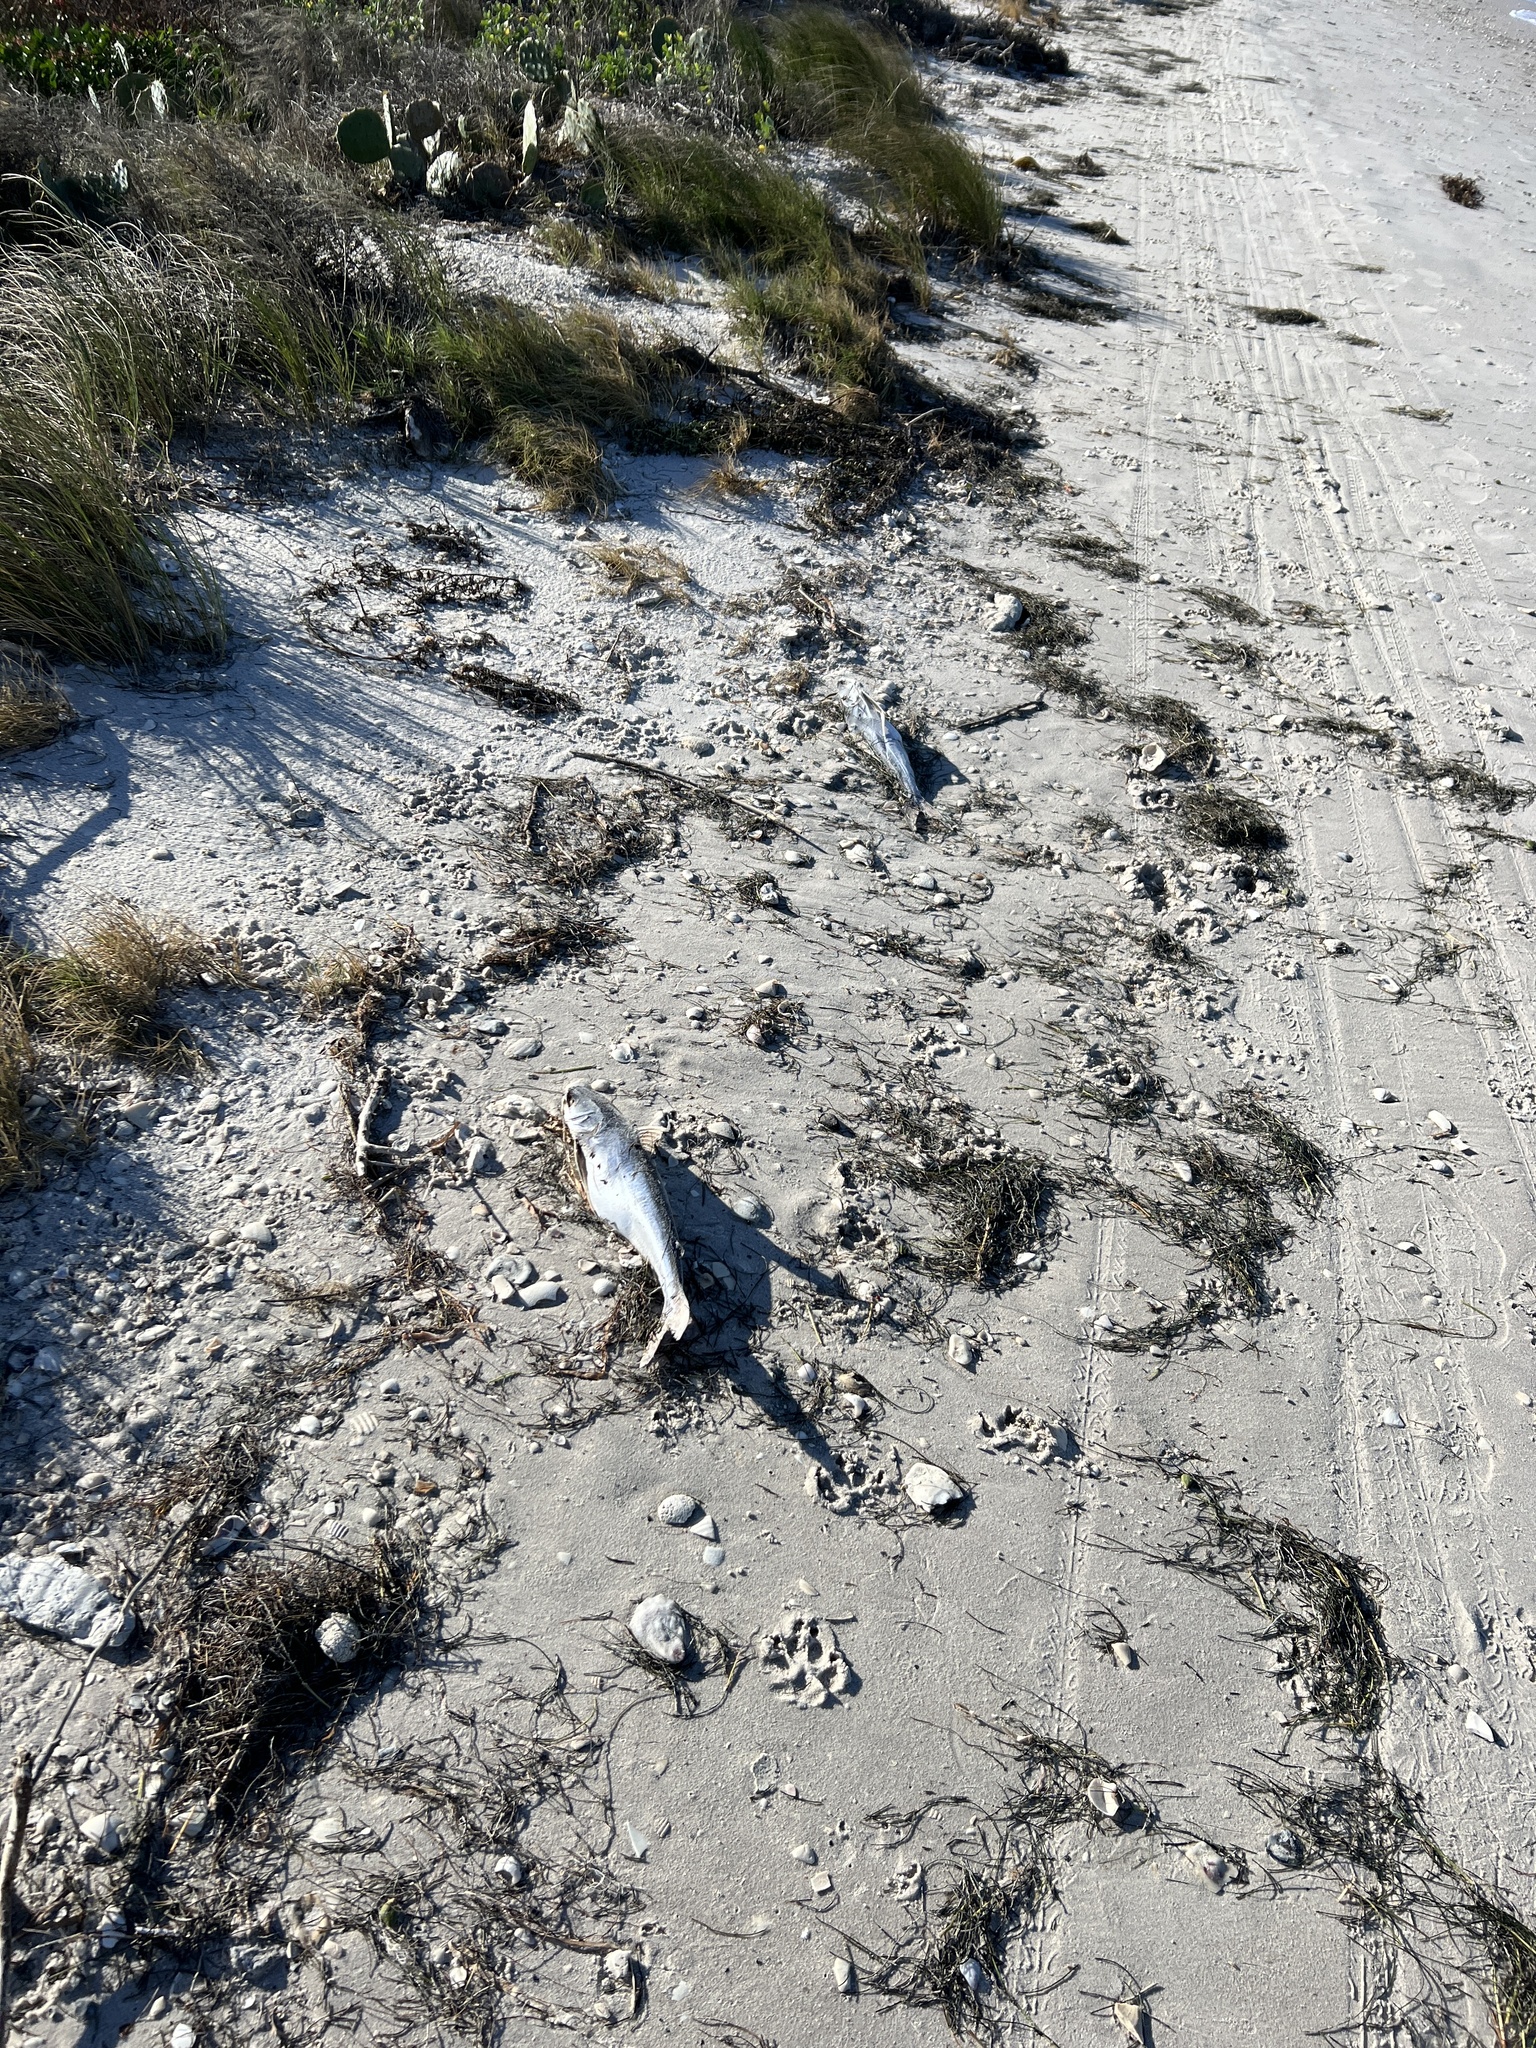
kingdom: Animalia
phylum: Chordata
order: Siluriformes
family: Ariidae
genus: Bagre
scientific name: Bagre marinus
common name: Gafftopsail sea catfish
